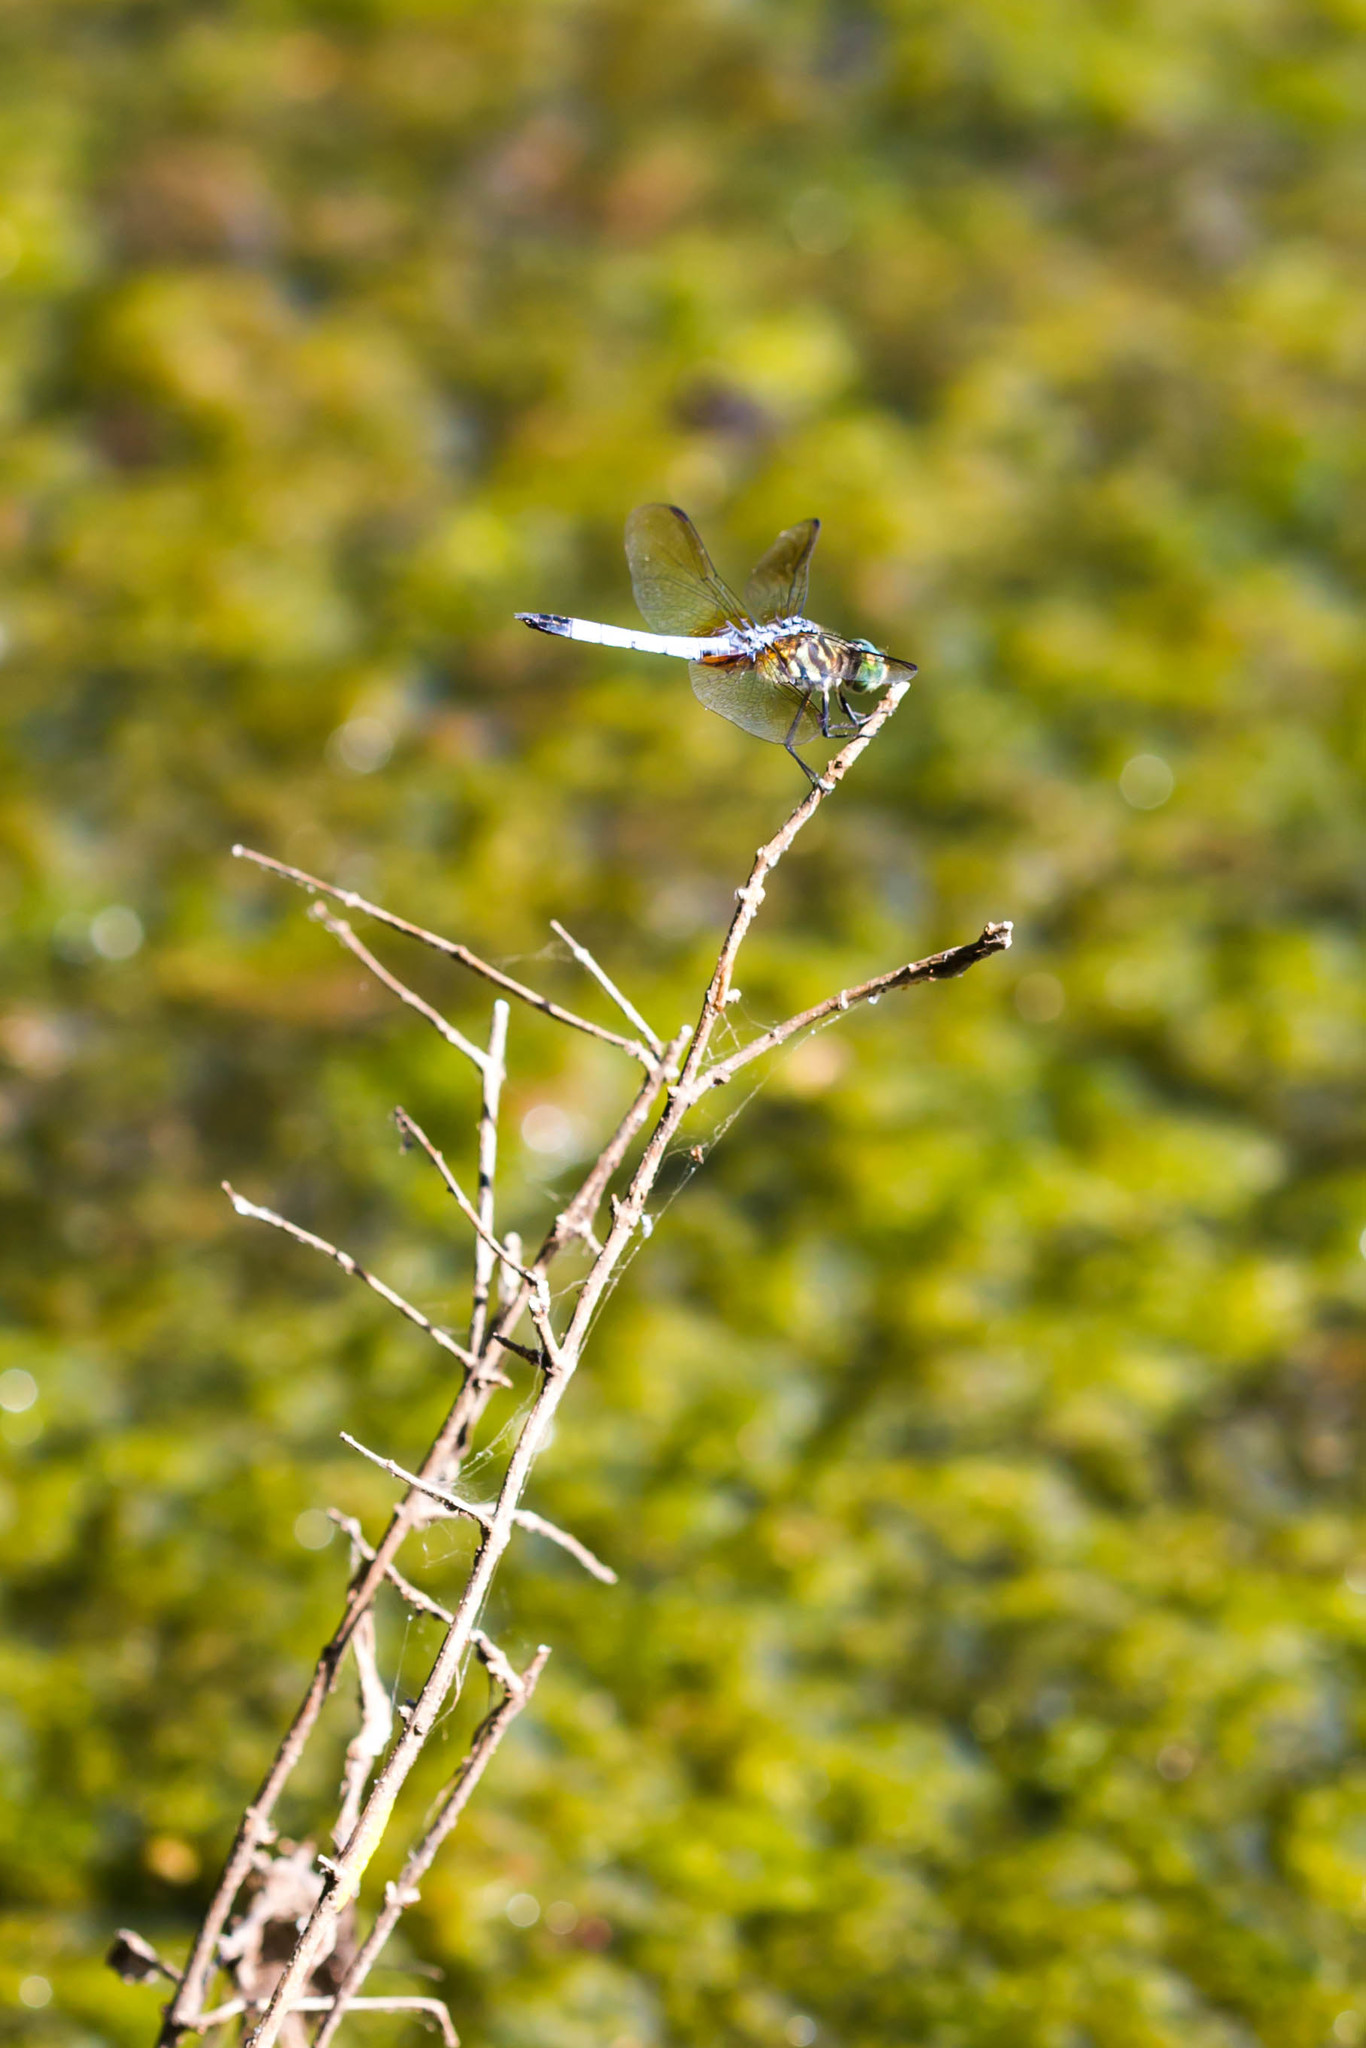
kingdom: Animalia
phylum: Arthropoda
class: Insecta
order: Odonata
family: Libellulidae
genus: Pachydiplax
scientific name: Pachydiplax longipennis
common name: Blue dasher
